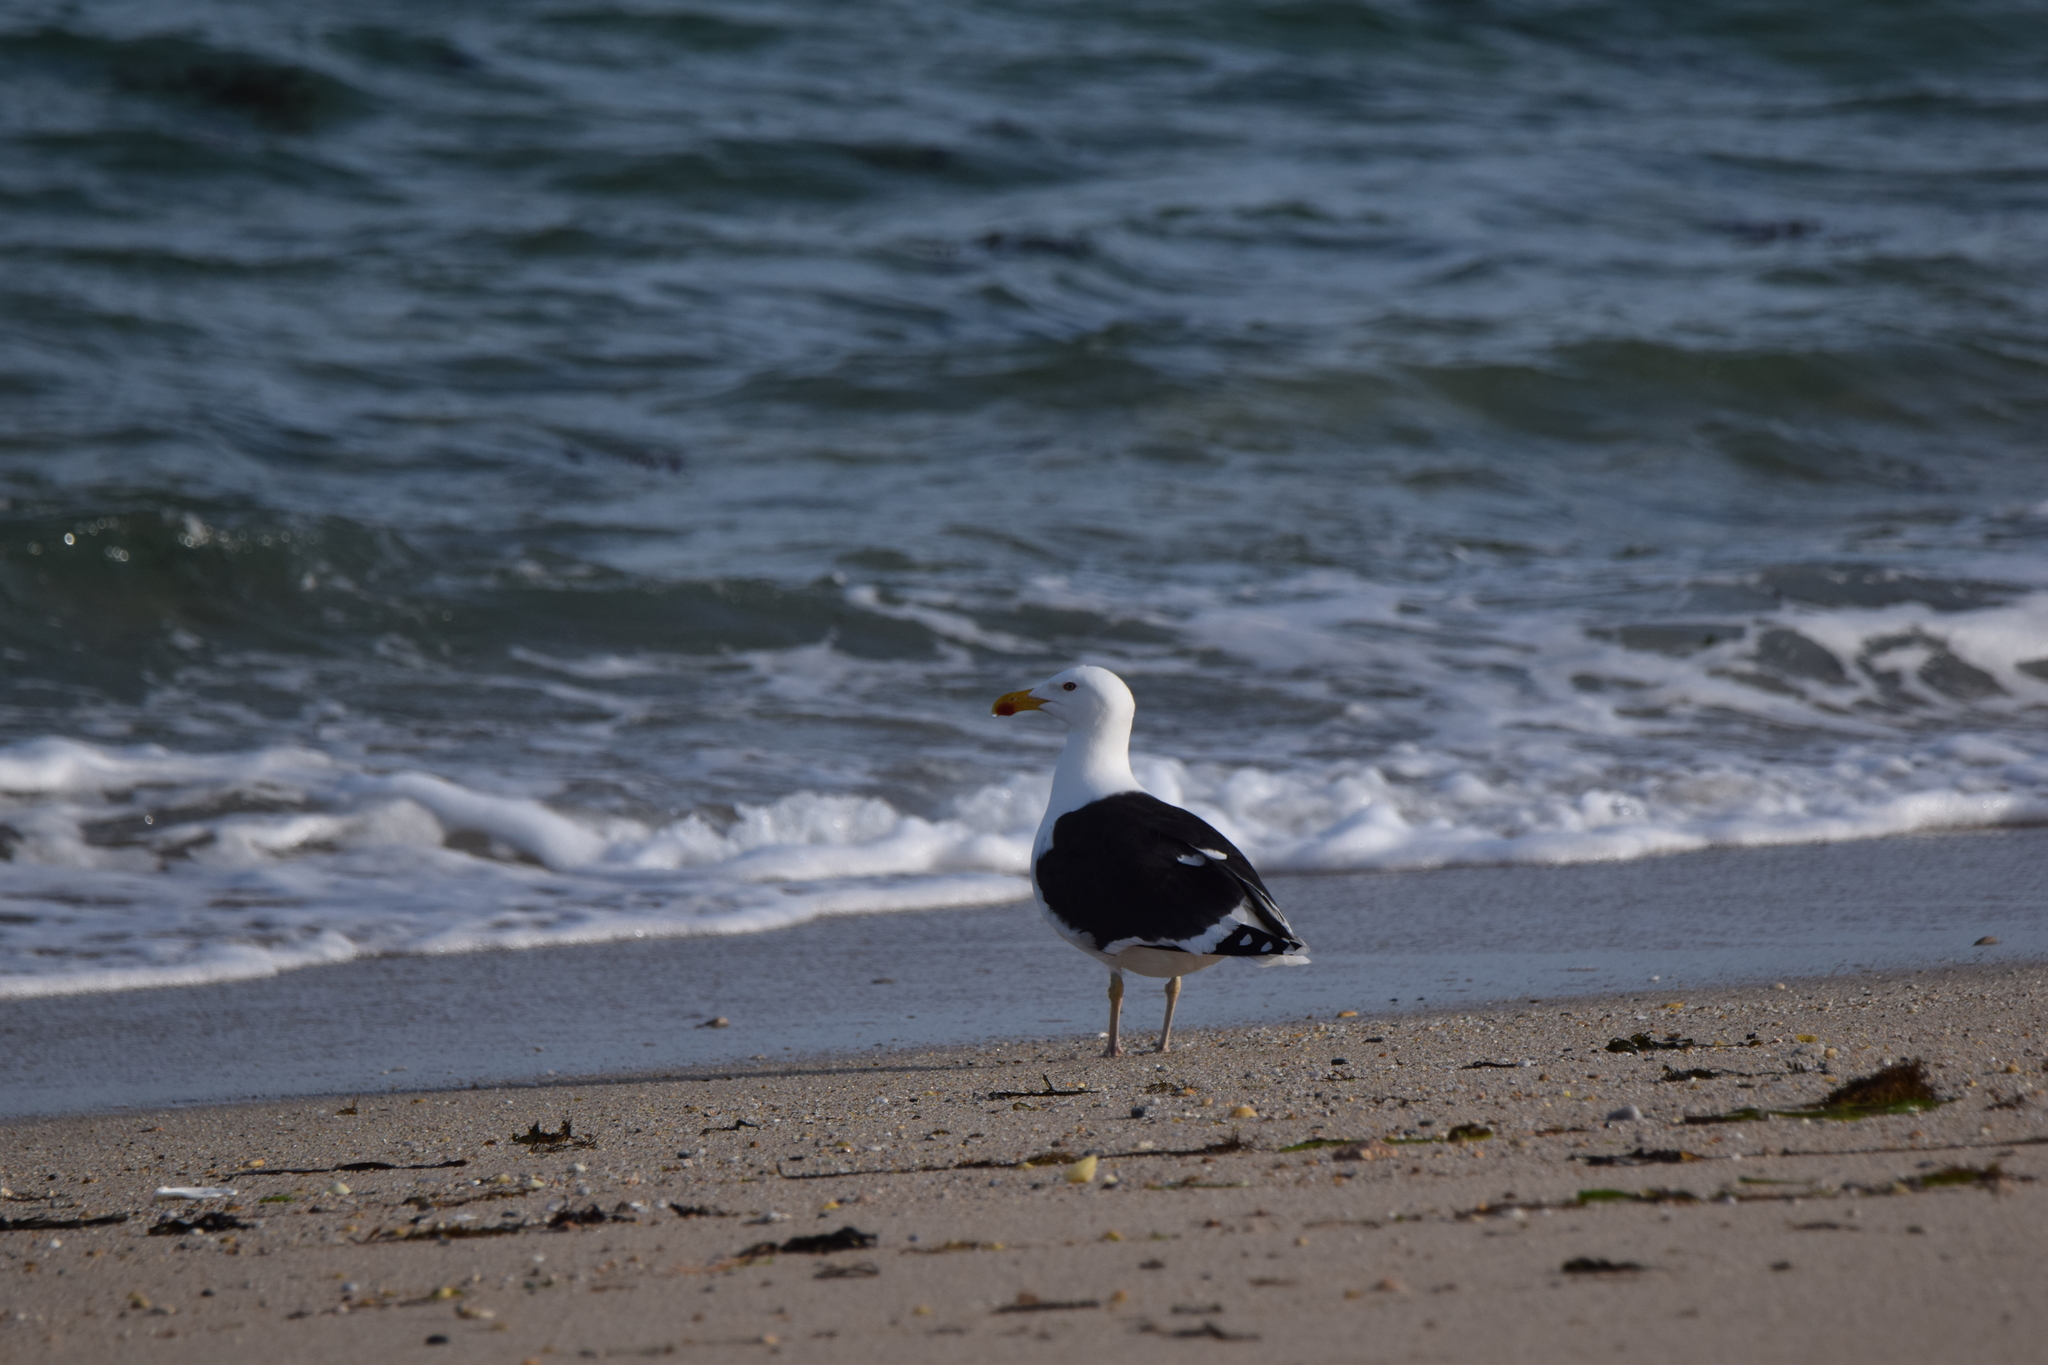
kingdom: Animalia
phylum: Chordata
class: Aves
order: Charadriiformes
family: Laridae
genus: Larus
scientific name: Larus marinus
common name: Great black-backed gull
